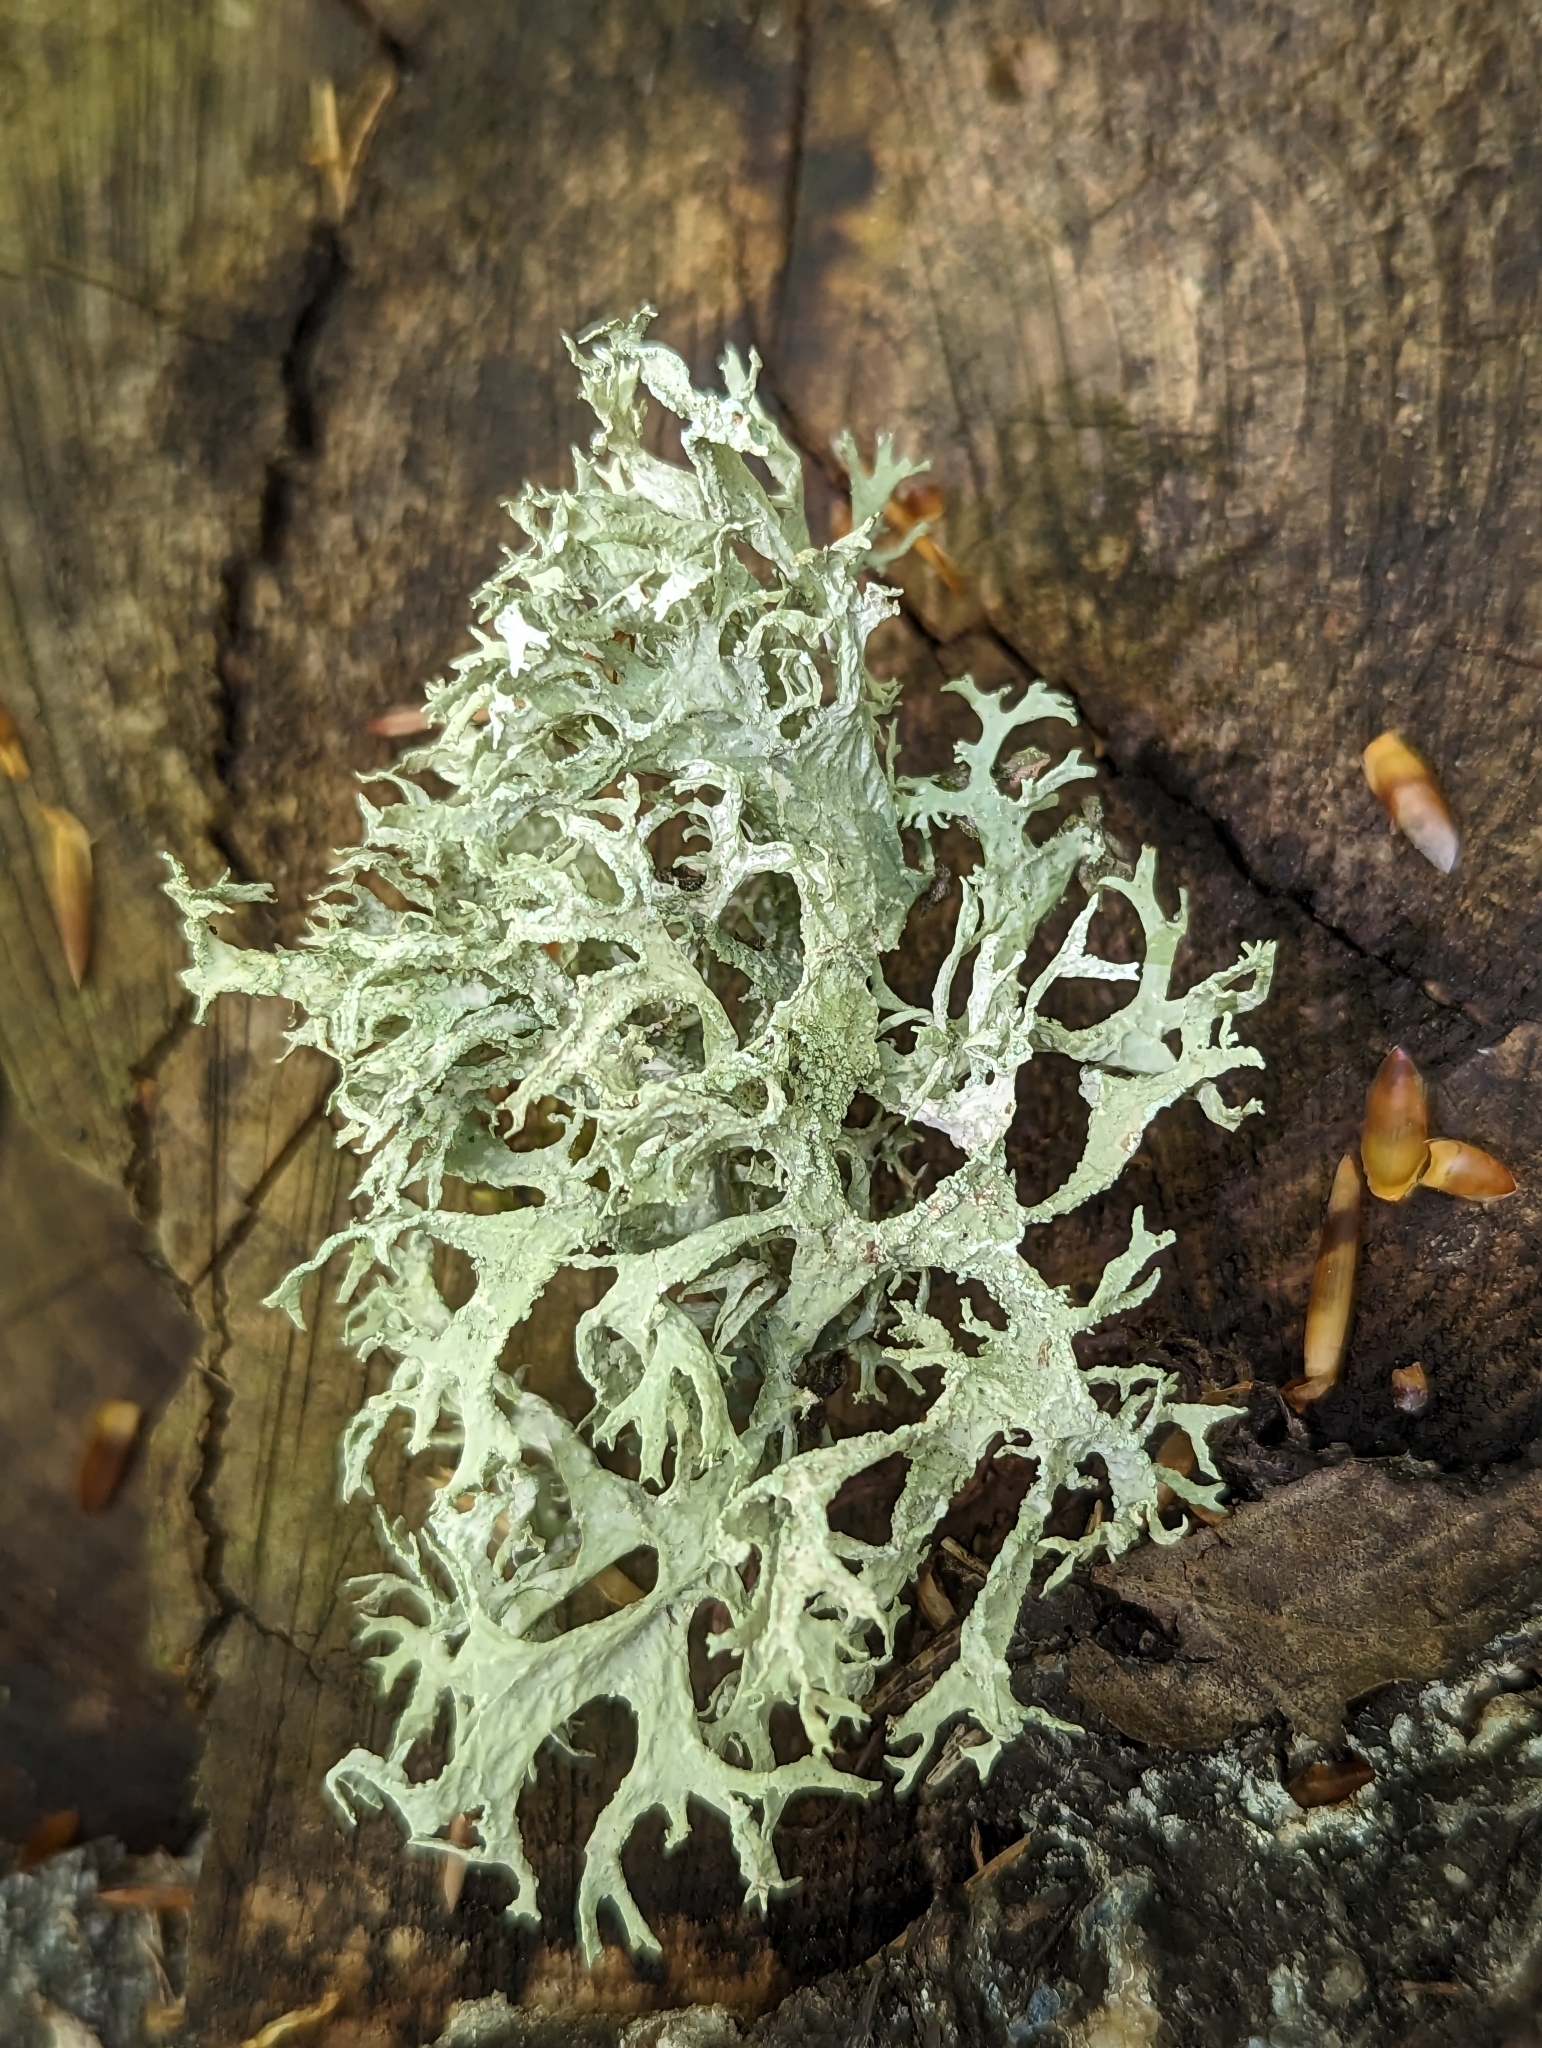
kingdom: Fungi
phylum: Ascomycota
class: Lecanoromycetes
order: Lecanorales
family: Parmeliaceae
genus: Evernia
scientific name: Evernia prunastri
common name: Oak moss
